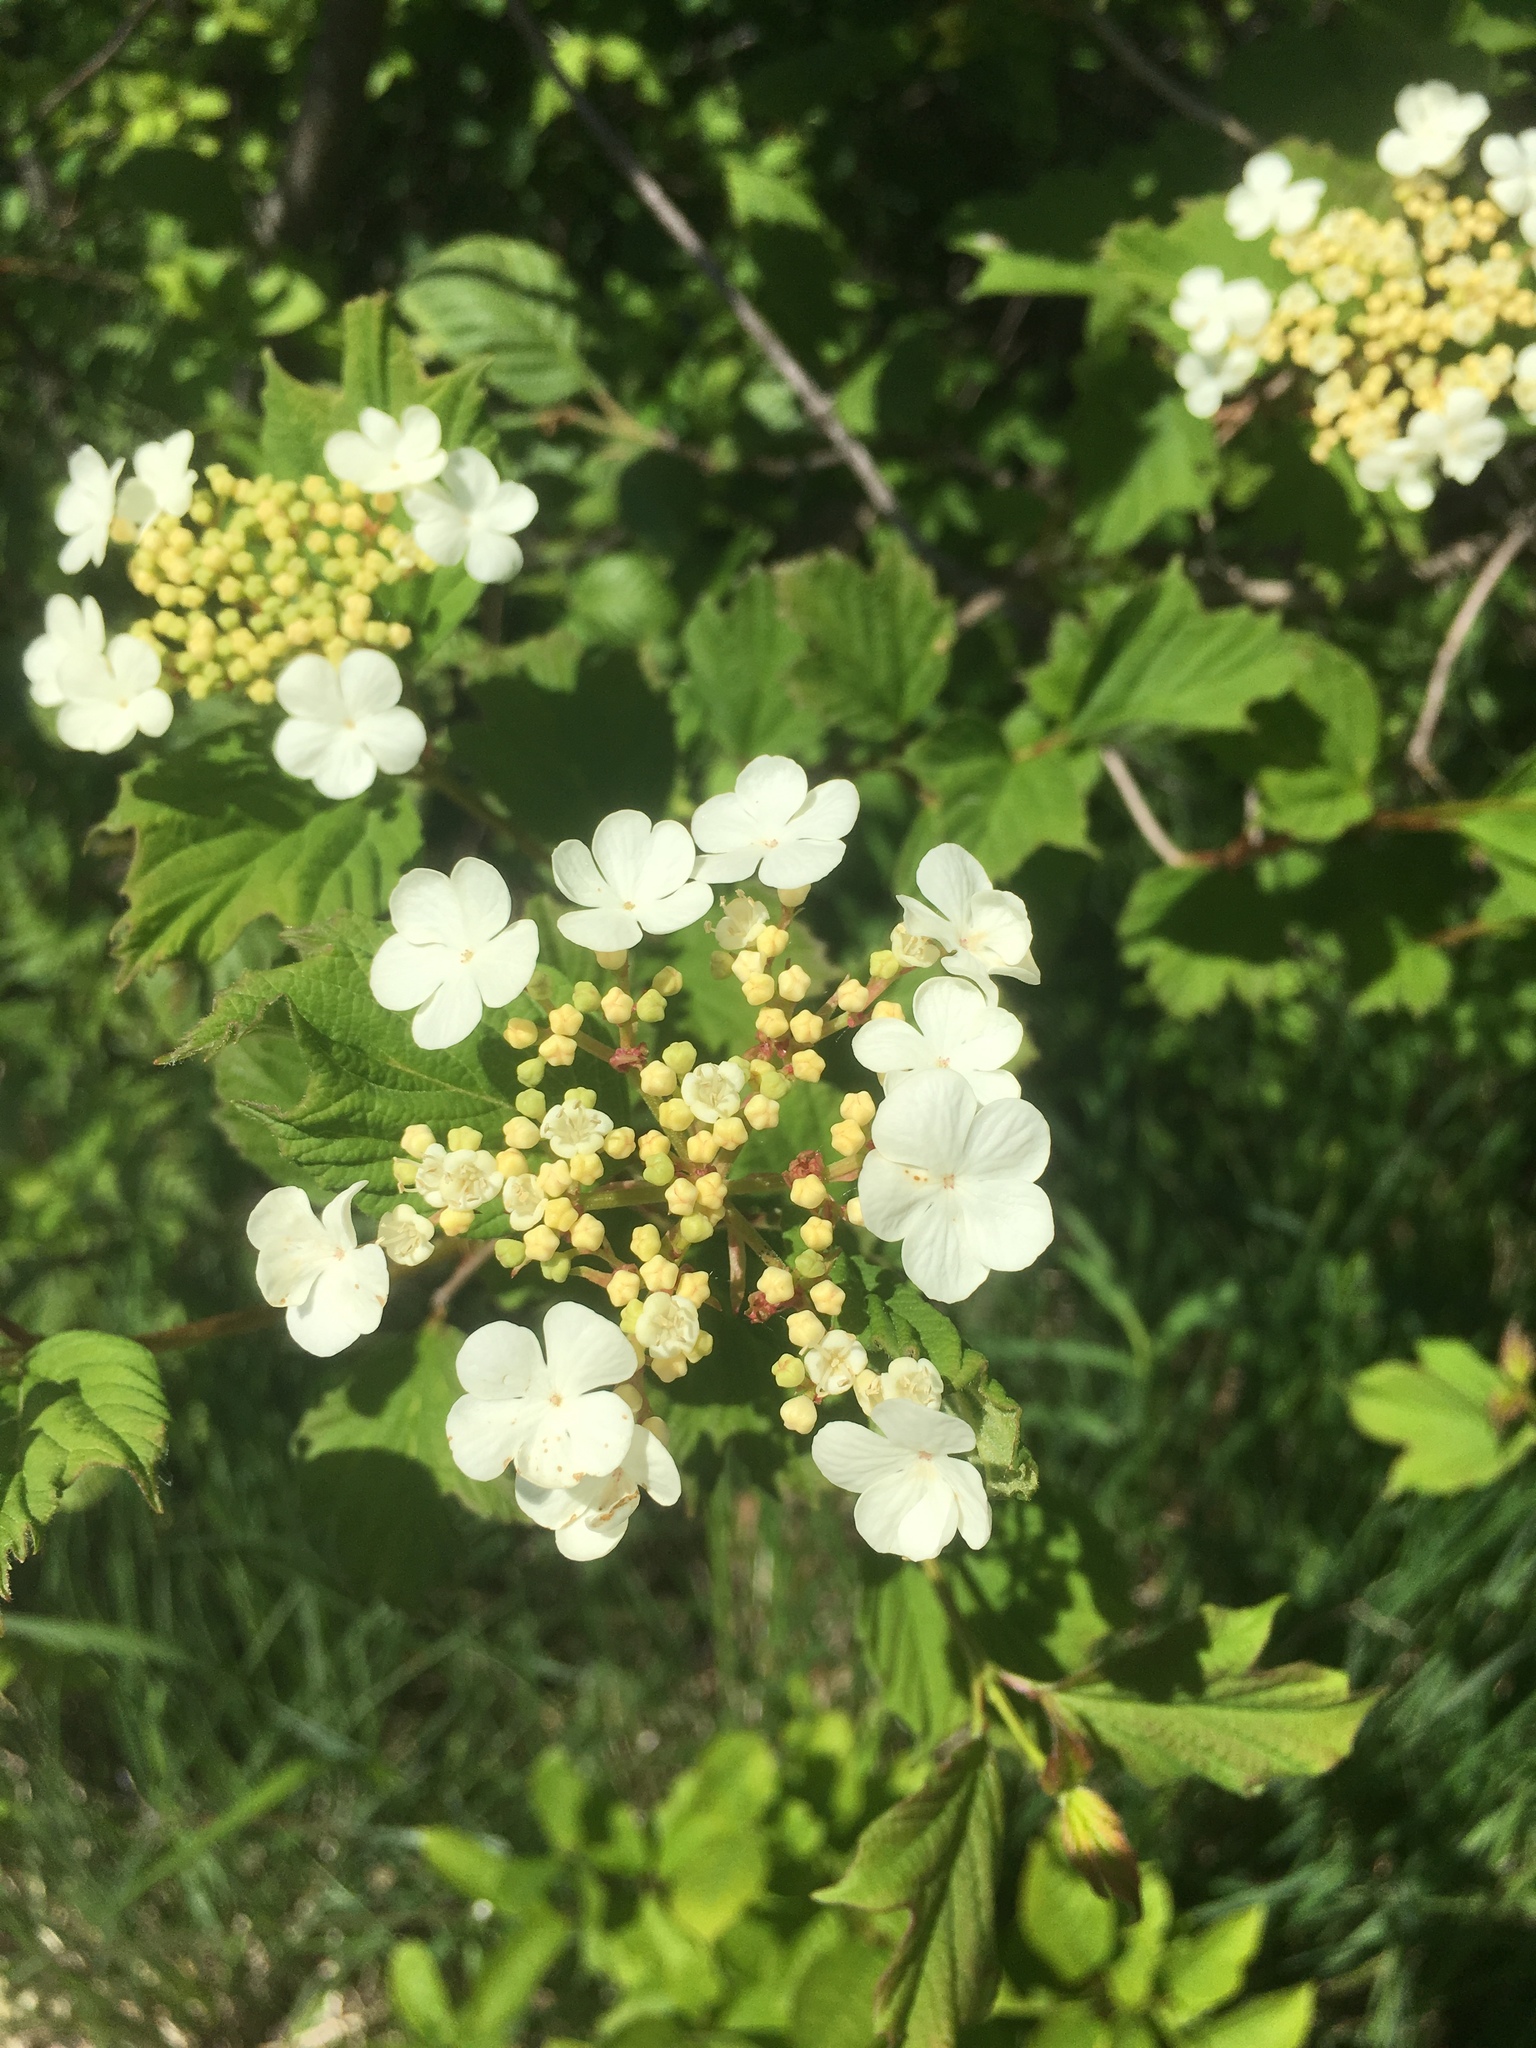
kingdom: Plantae
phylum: Tracheophyta
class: Magnoliopsida
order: Dipsacales
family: Viburnaceae
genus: Viburnum
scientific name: Viburnum opulus
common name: Guelder-rose
